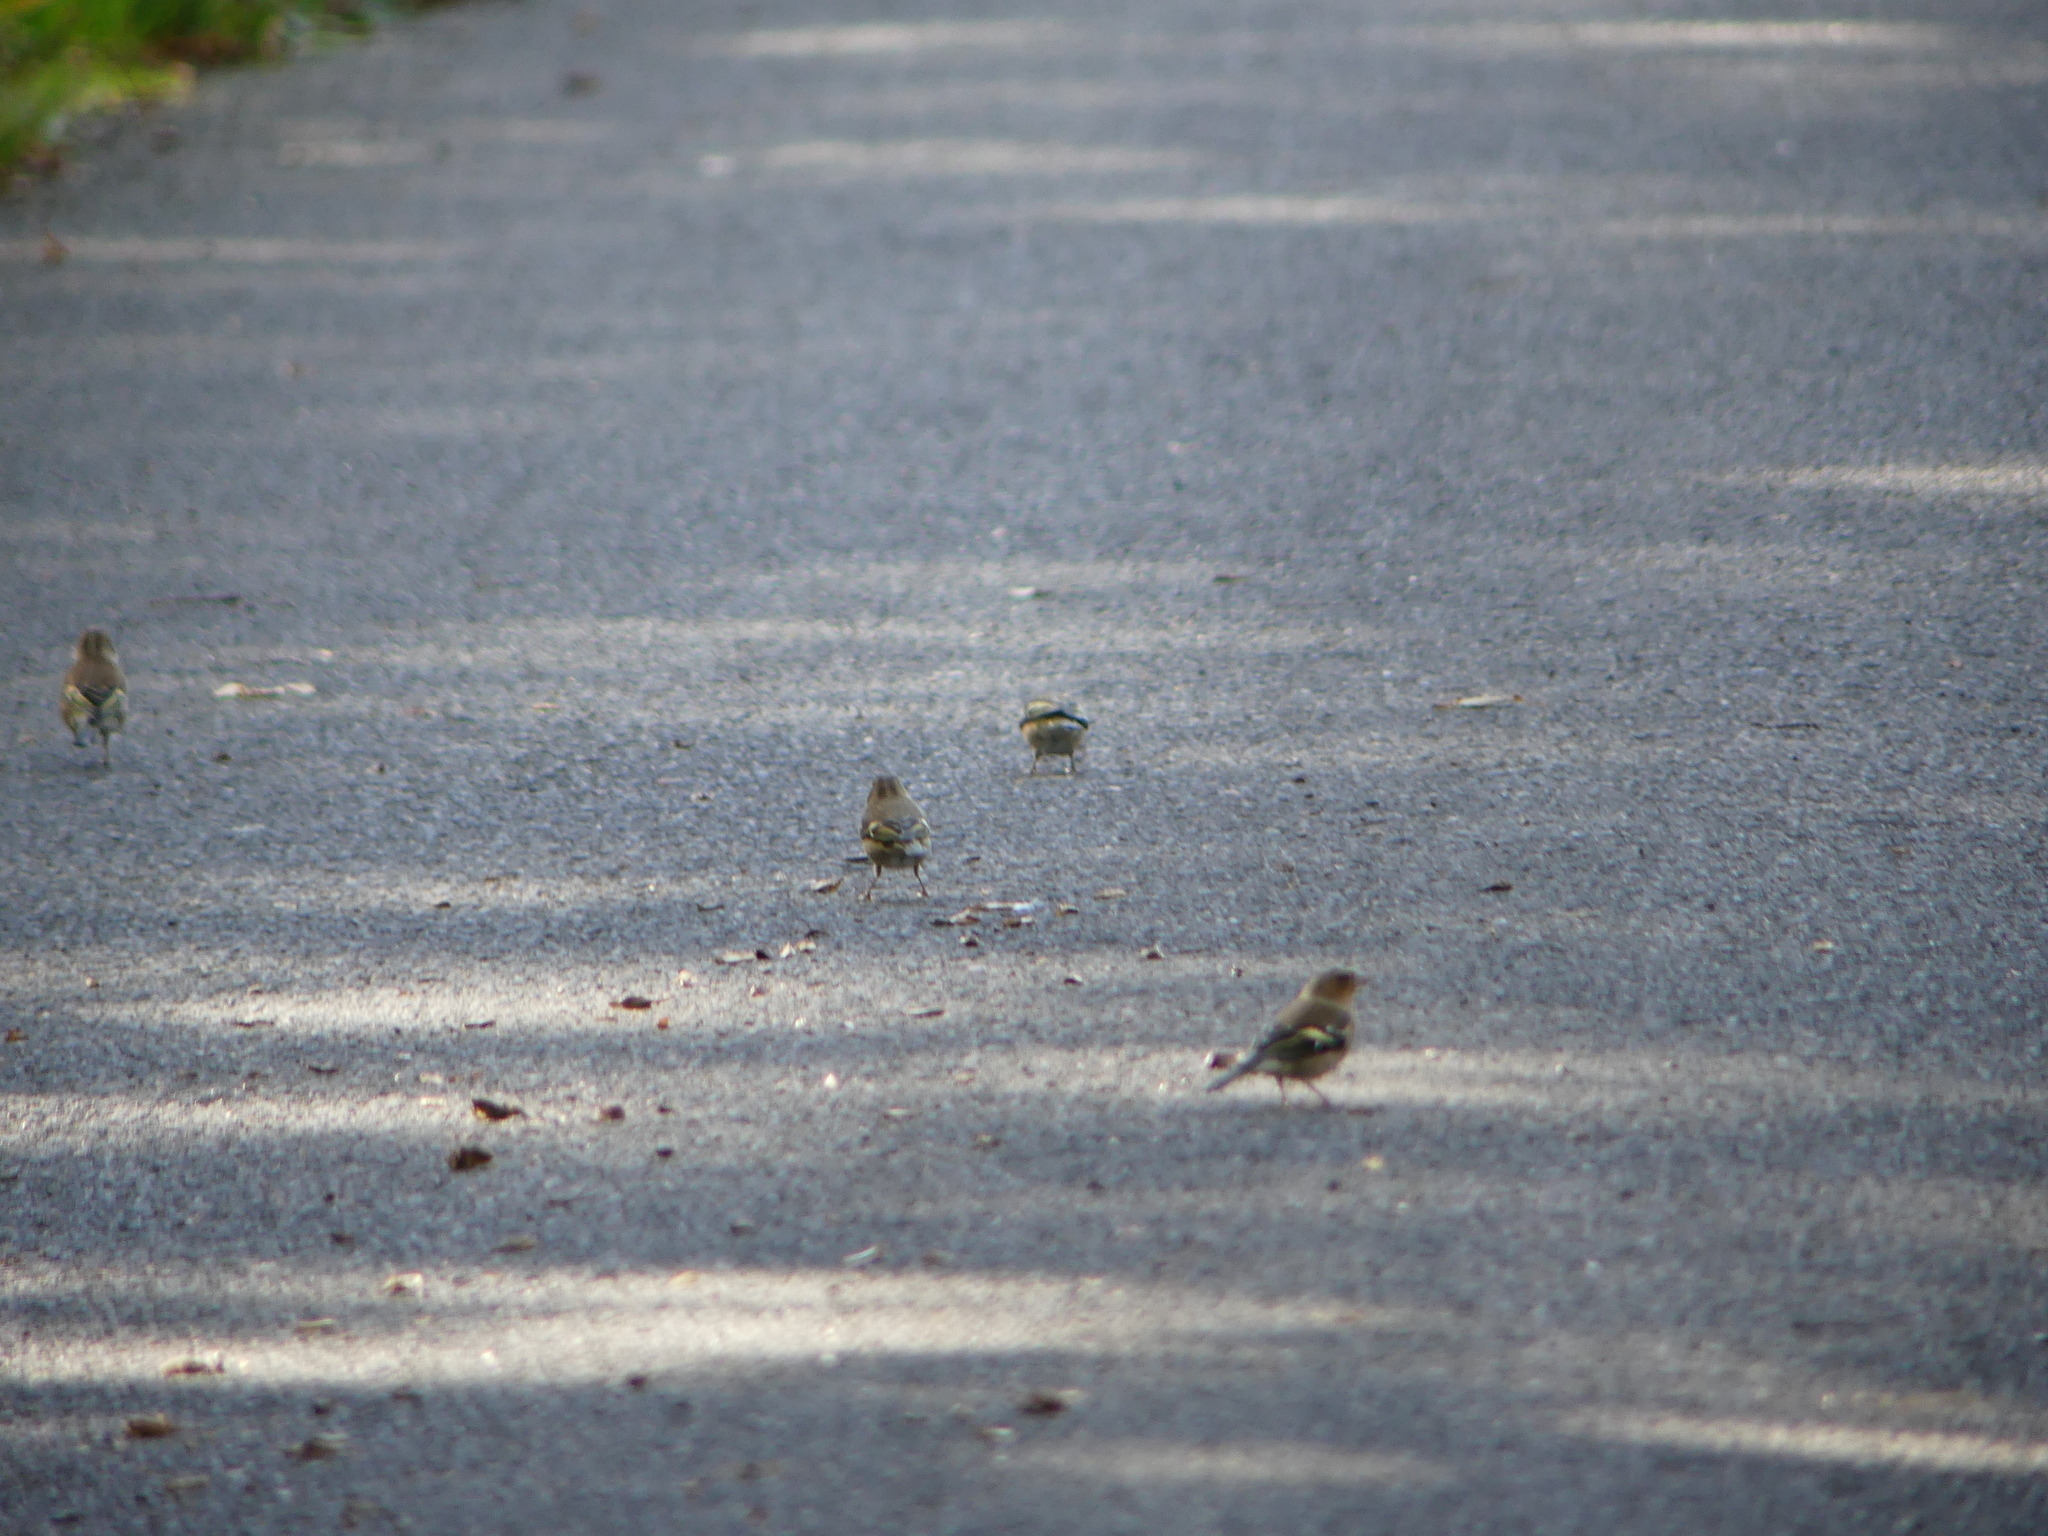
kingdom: Animalia
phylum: Chordata
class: Aves
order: Passeriformes
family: Fringillidae
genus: Fringilla
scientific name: Fringilla coelebs
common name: Common chaffinch
